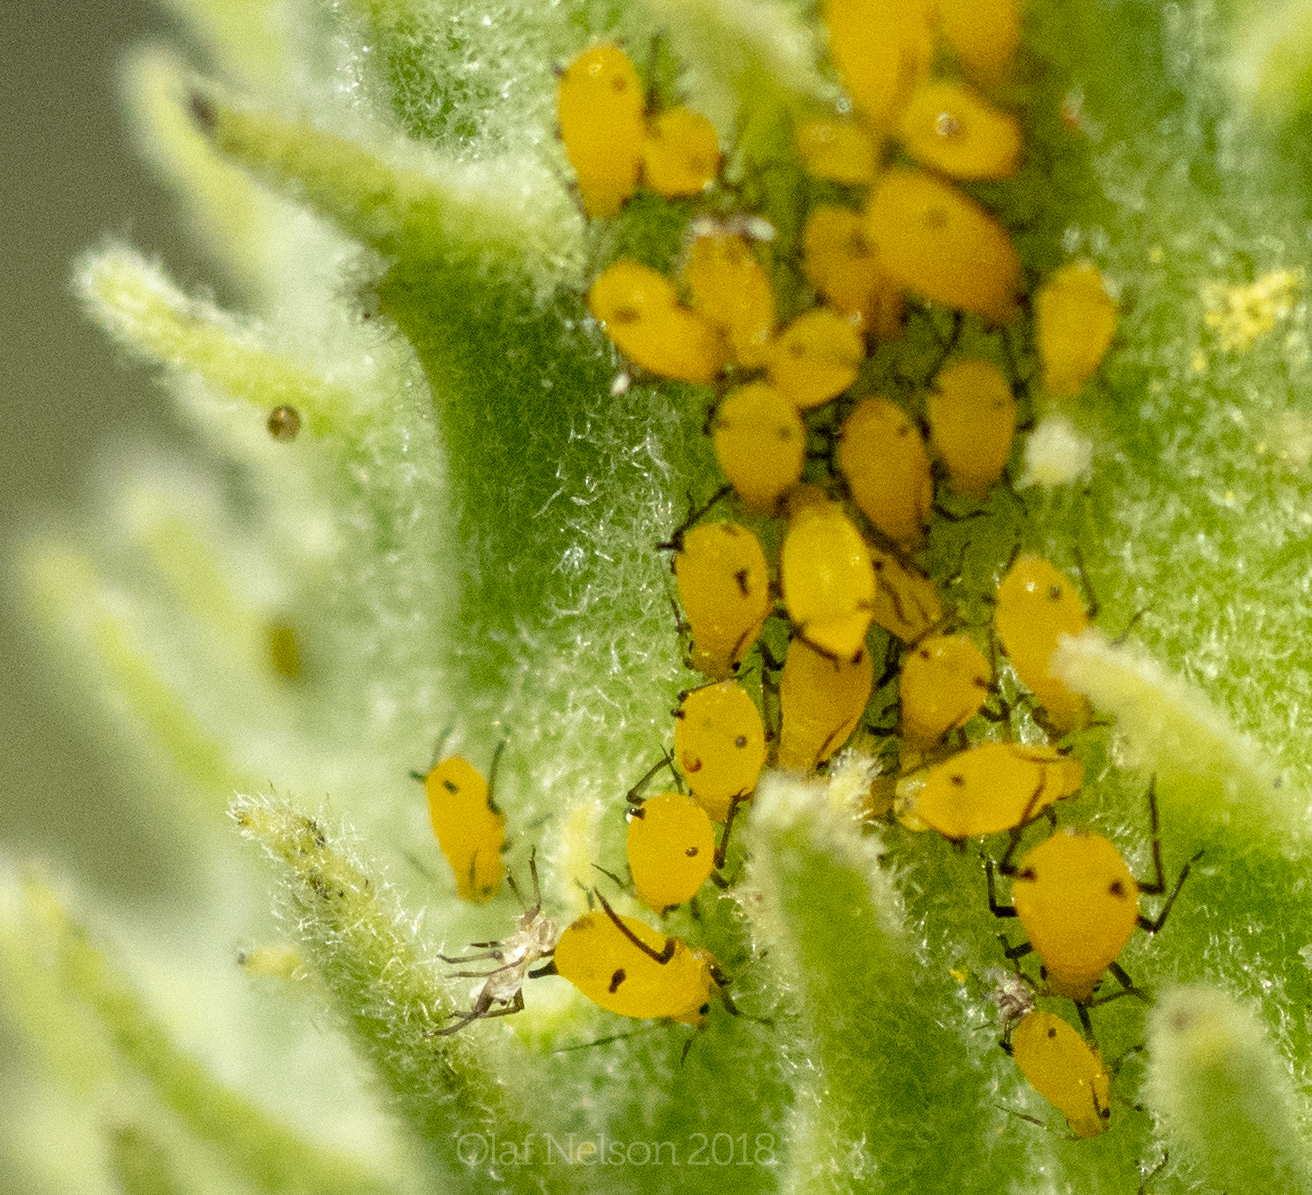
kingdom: Animalia
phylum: Arthropoda
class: Insecta
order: Hemiptera
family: Aphididae
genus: Aphis
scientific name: Aphis nerii
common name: Oleander aphid
